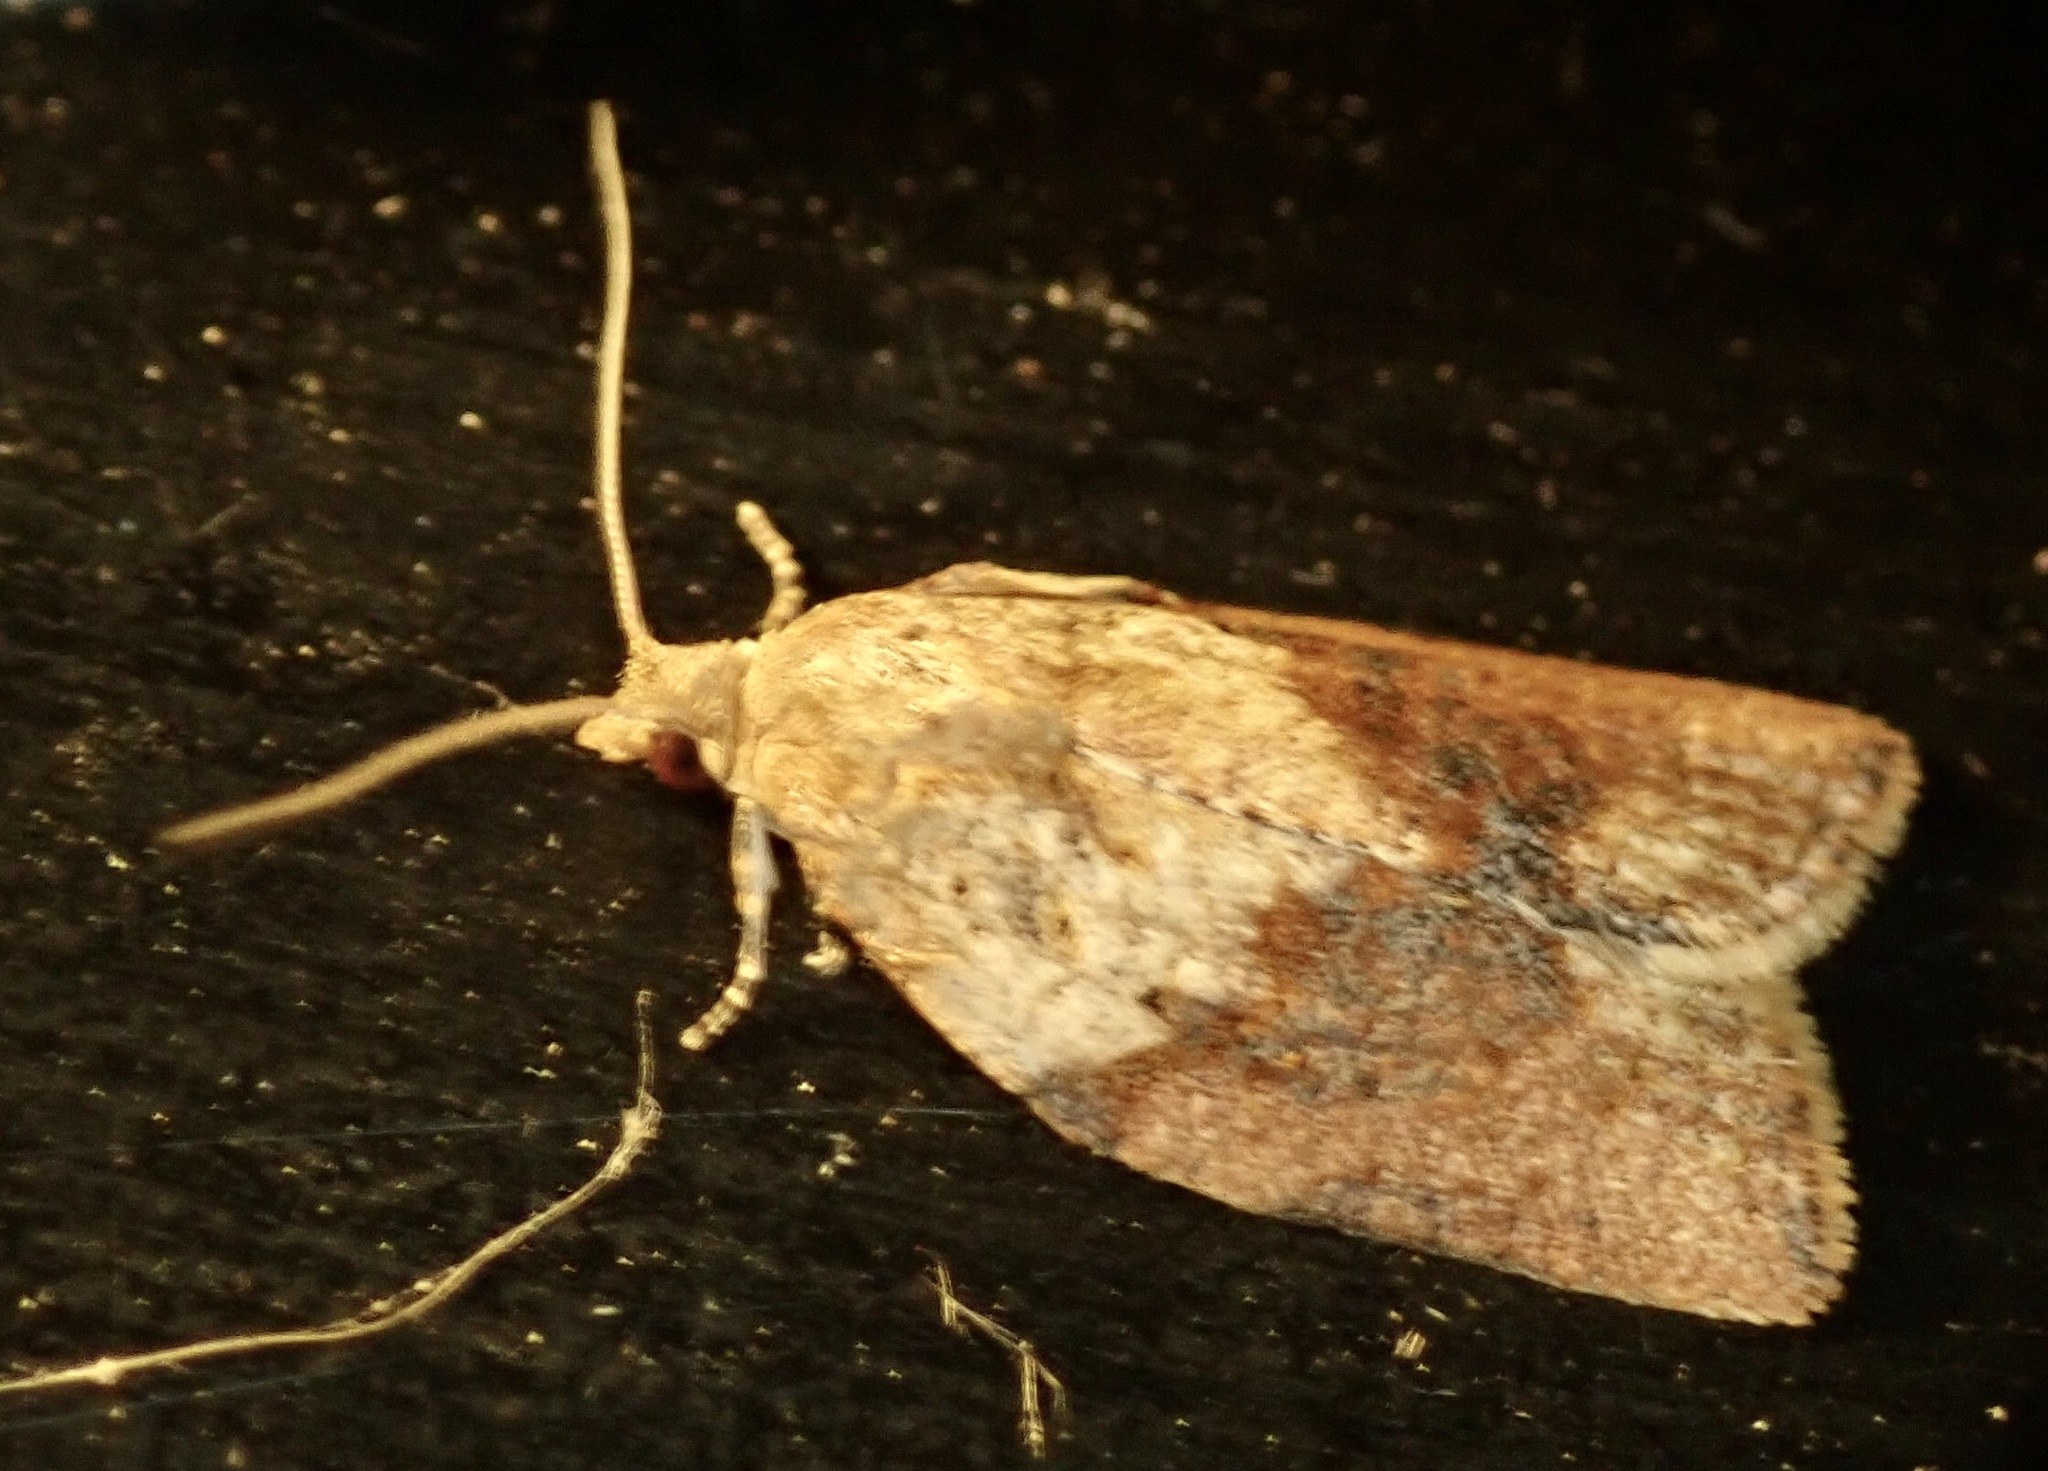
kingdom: Animalia
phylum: Arthropoda
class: Insecta
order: Lepidoptera
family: Tortricidae
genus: Epiphyas
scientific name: Epiphyas postvittana
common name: Light brown apple moth
